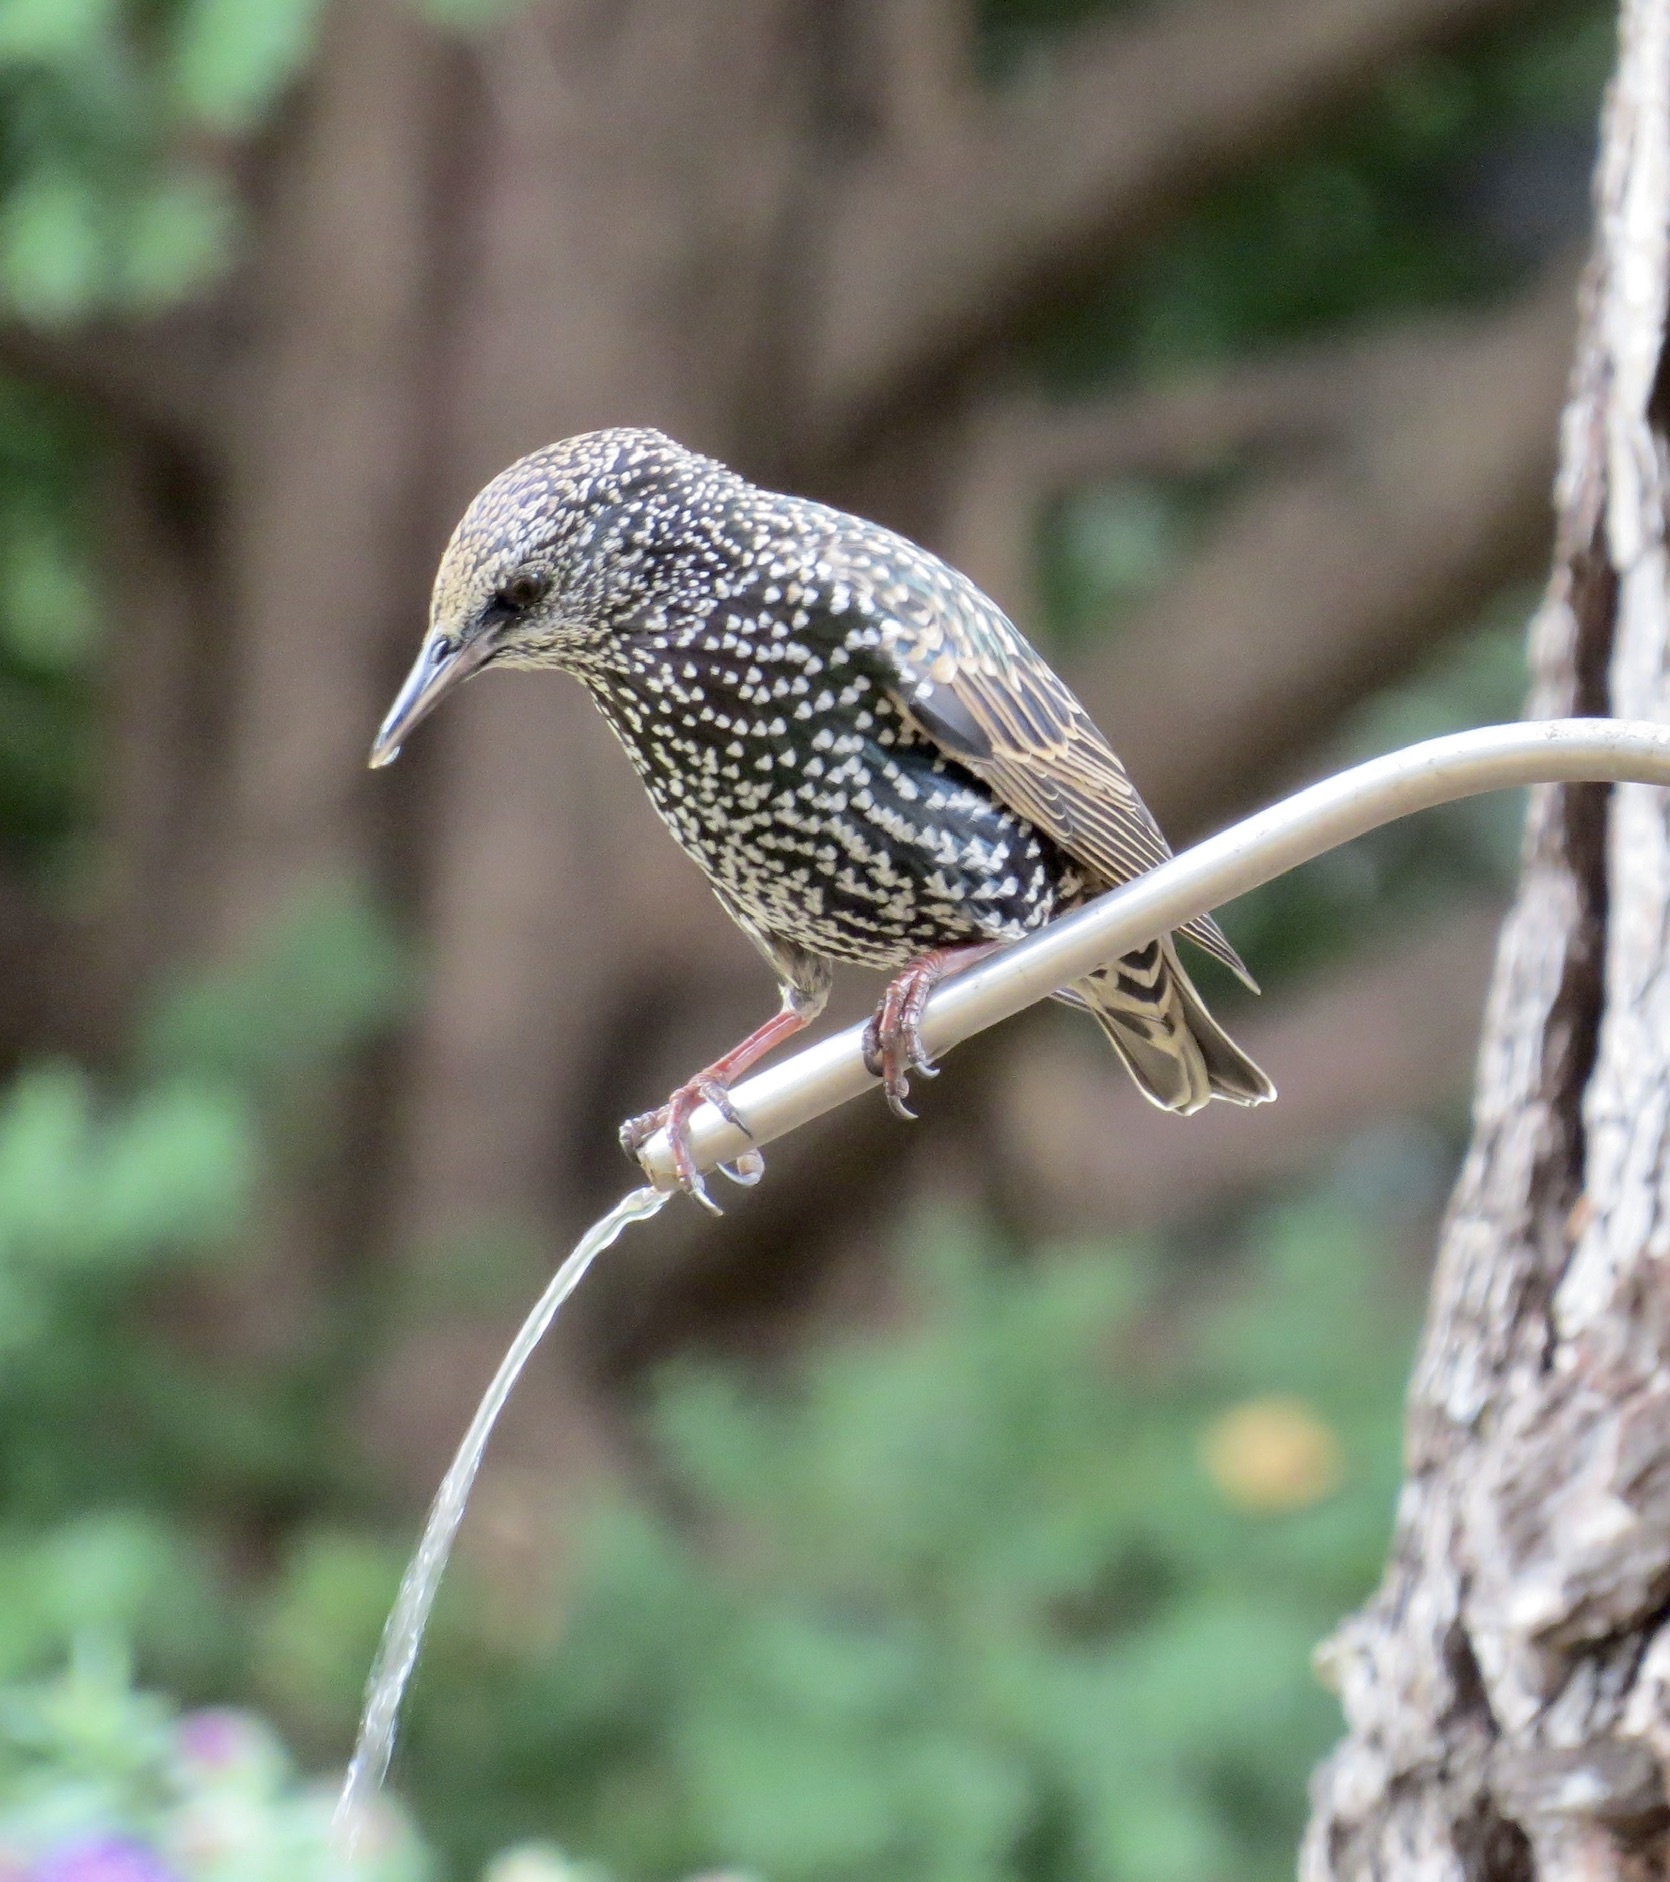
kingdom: Animalia
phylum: Chordata
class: Aves
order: Passeriformes
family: Sturnidae
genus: Sturnus
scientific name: Sturnus vulgaris
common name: Common starling
